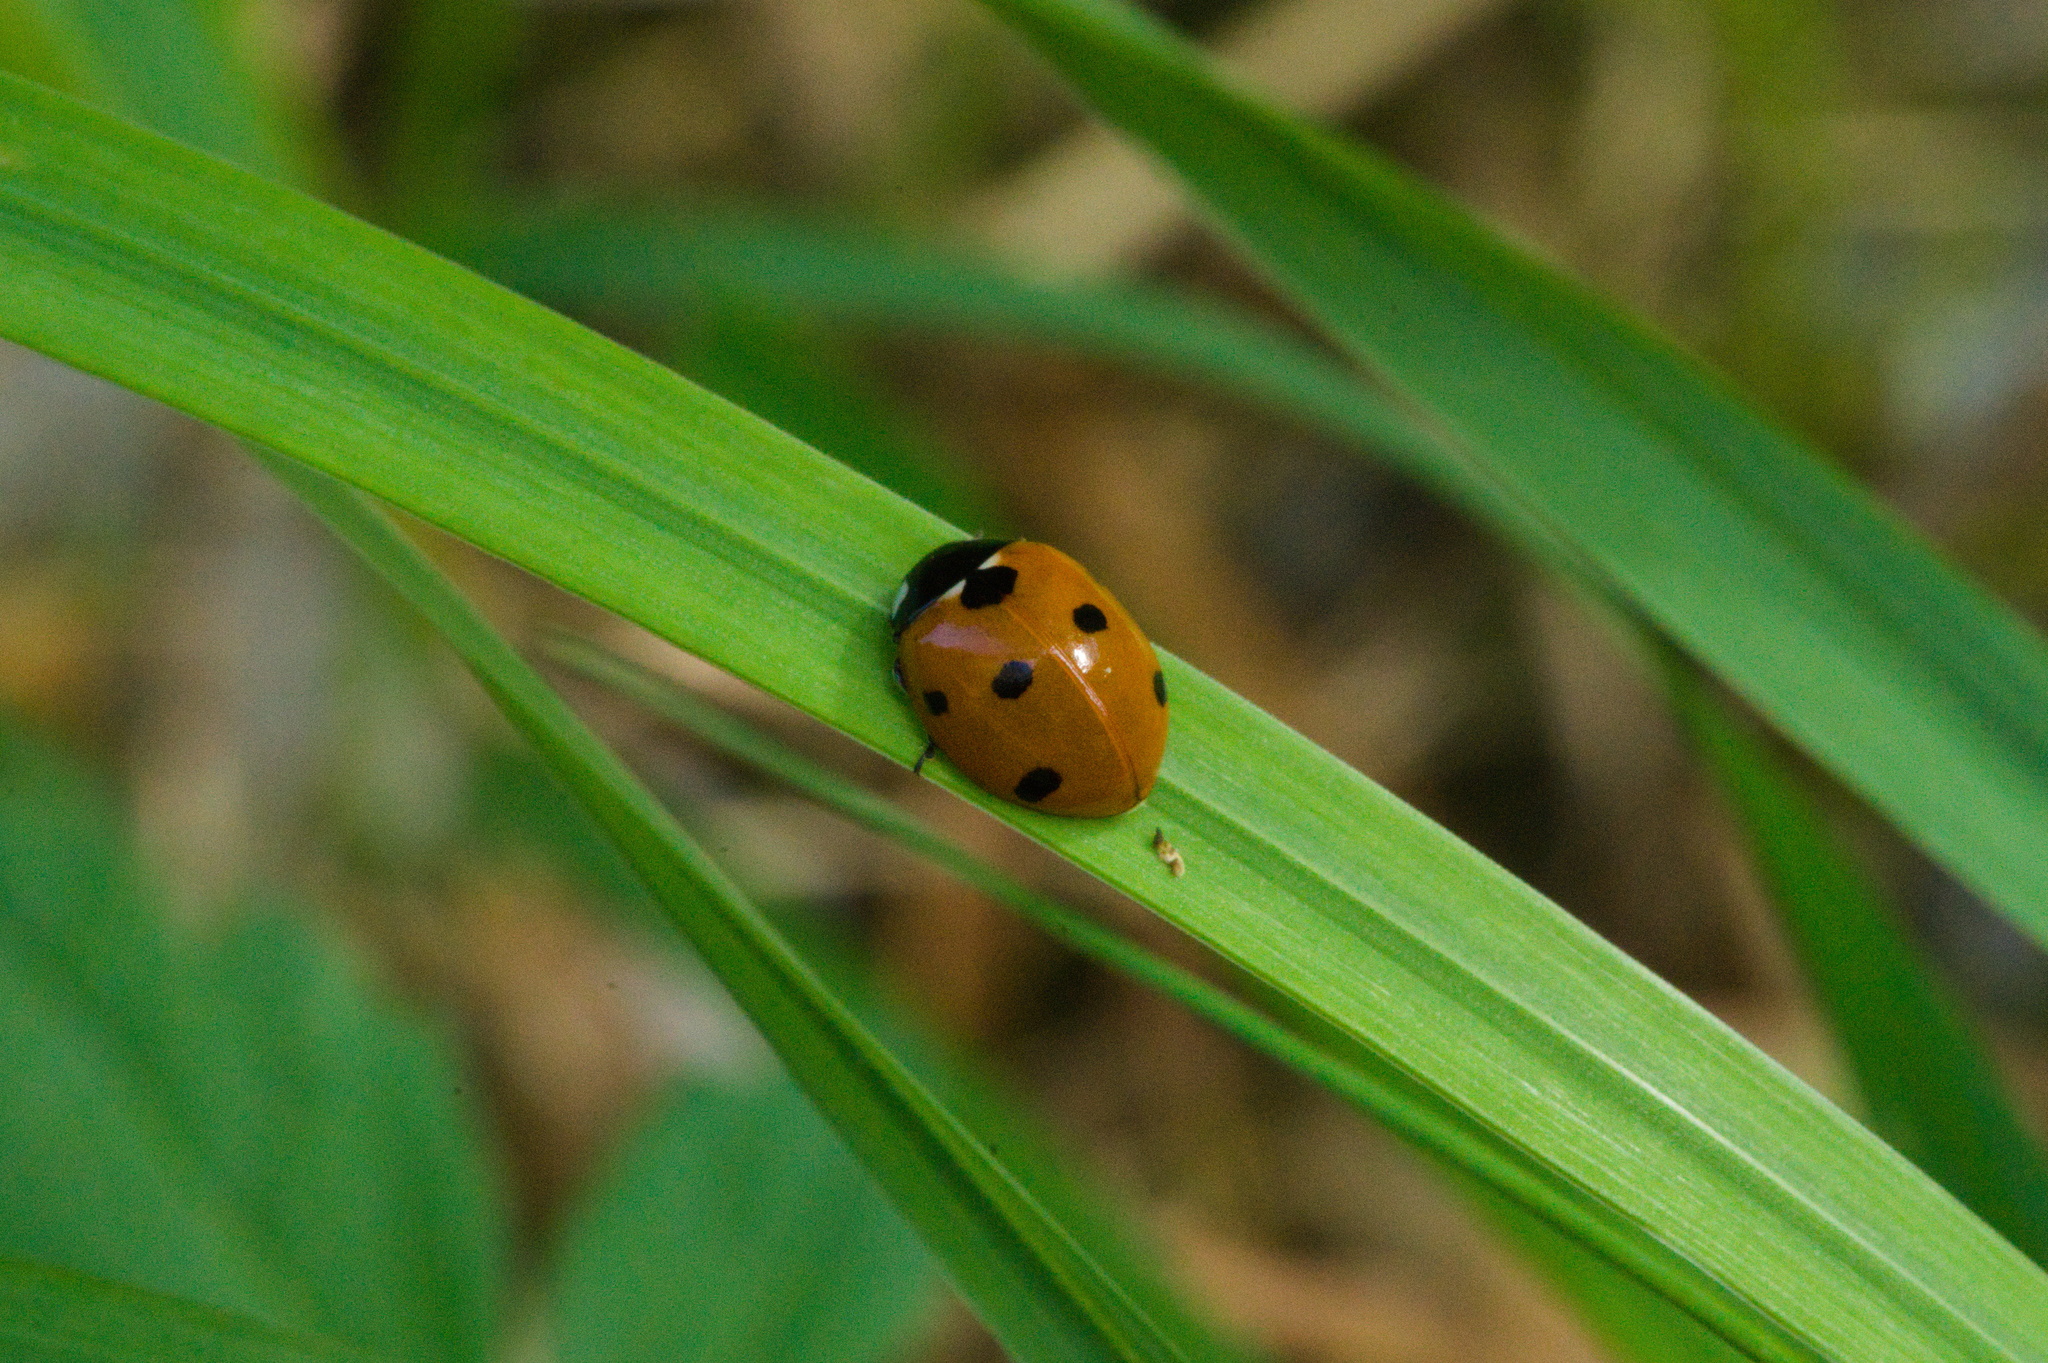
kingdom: Animalia
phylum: Arthropoda
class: Insecta
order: Coleoptera
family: Coccinellidae
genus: Coccinella
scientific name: Coccinella septempunctata
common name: Sevenspotted lady beetle
